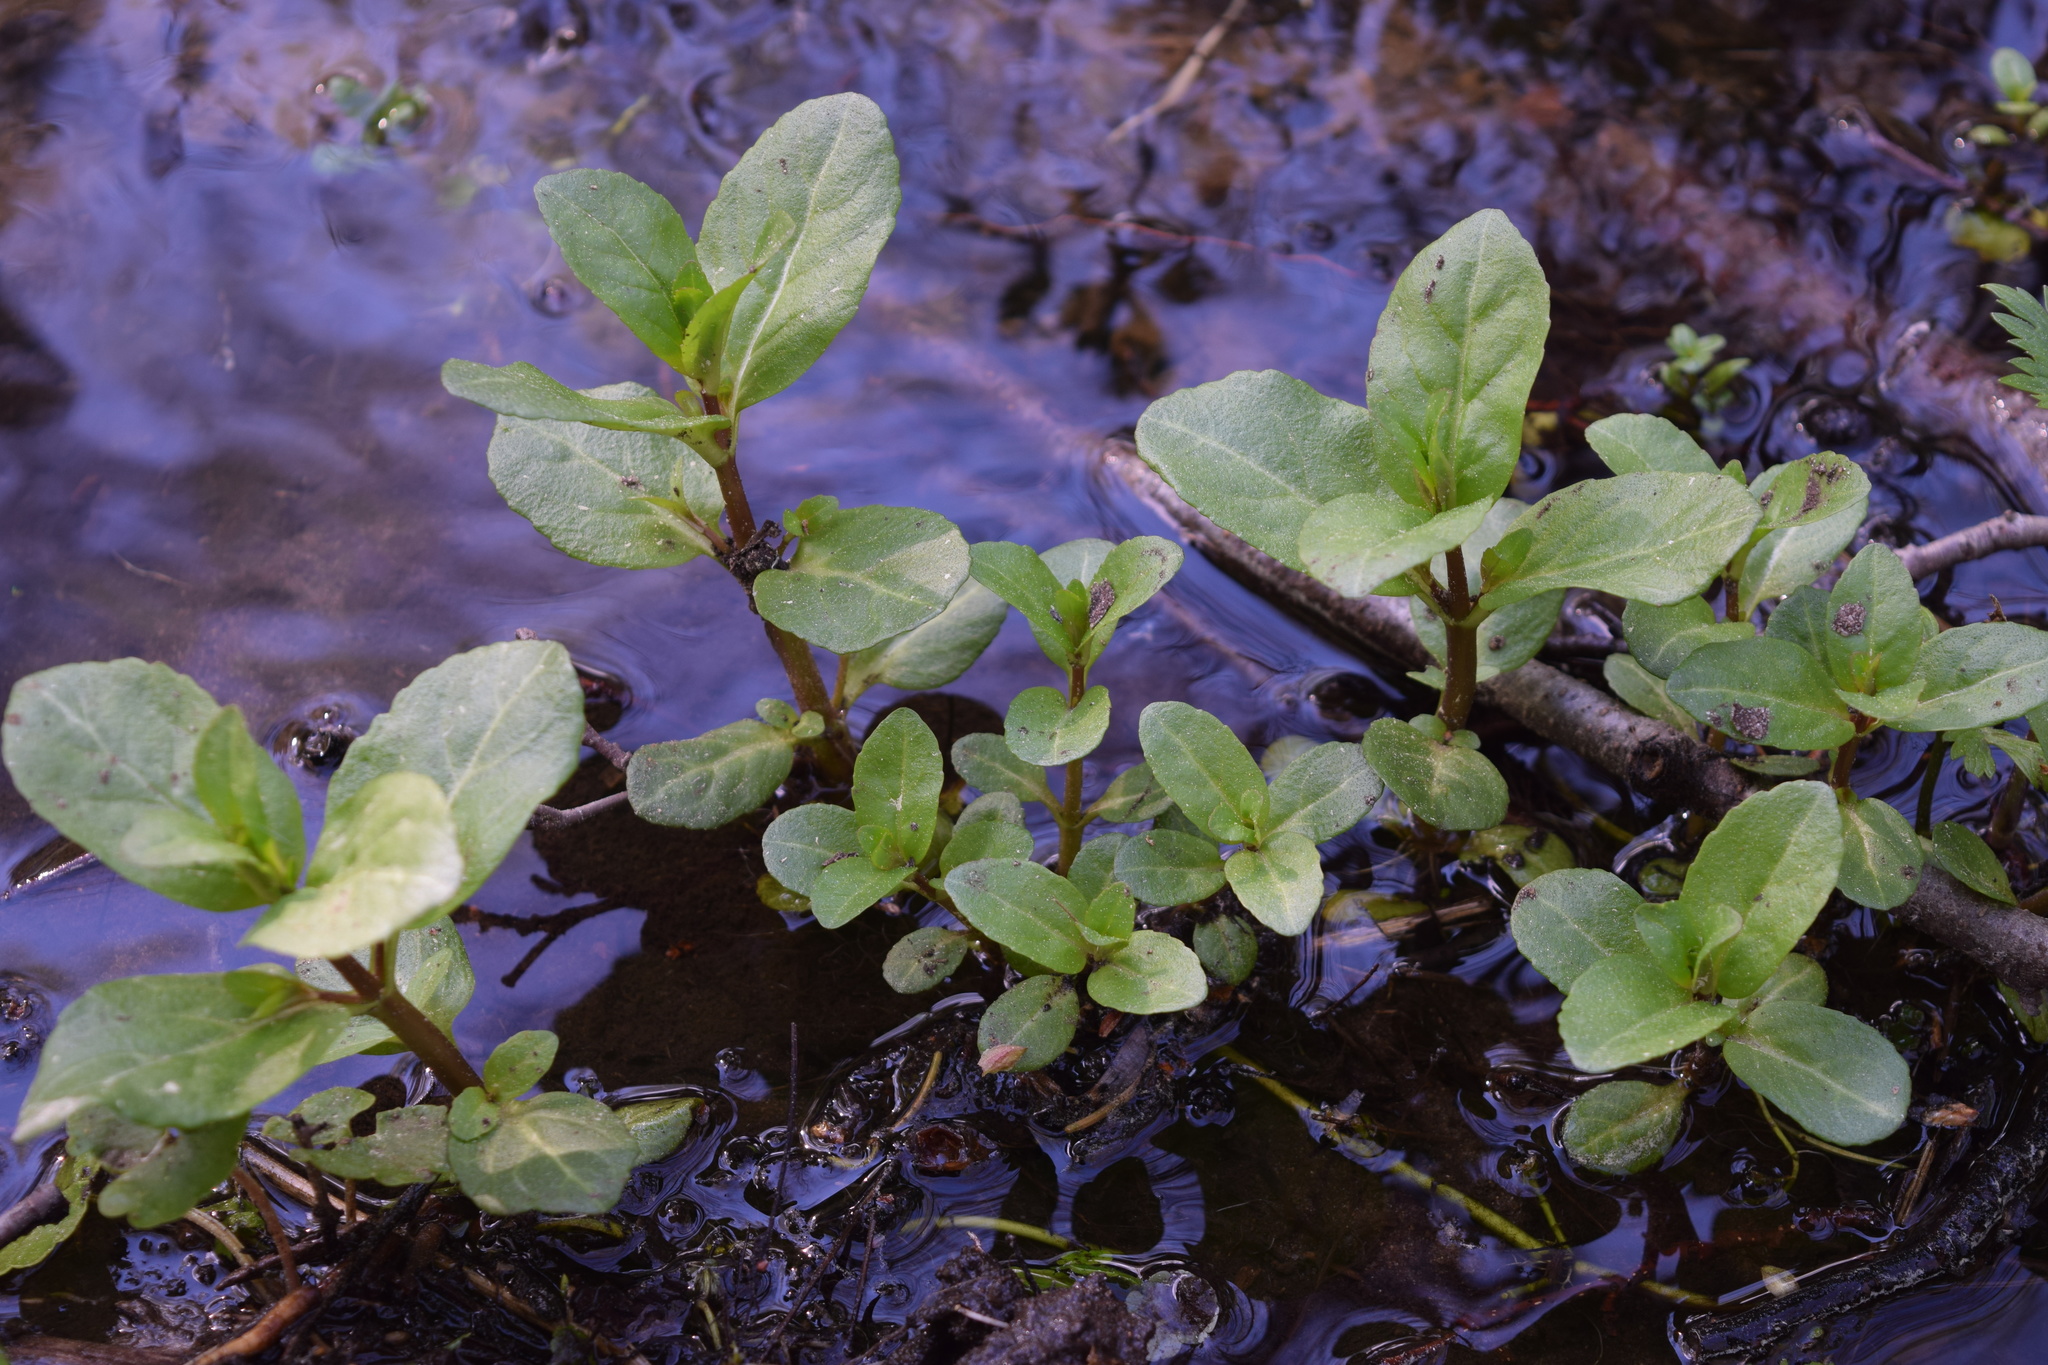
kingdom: Plantae
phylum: Tracheophyta
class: Magnoliopsida
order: Lamiales
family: Plantaginaceae
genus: Veronica
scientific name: Veronica beccabunga
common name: Brooklime
